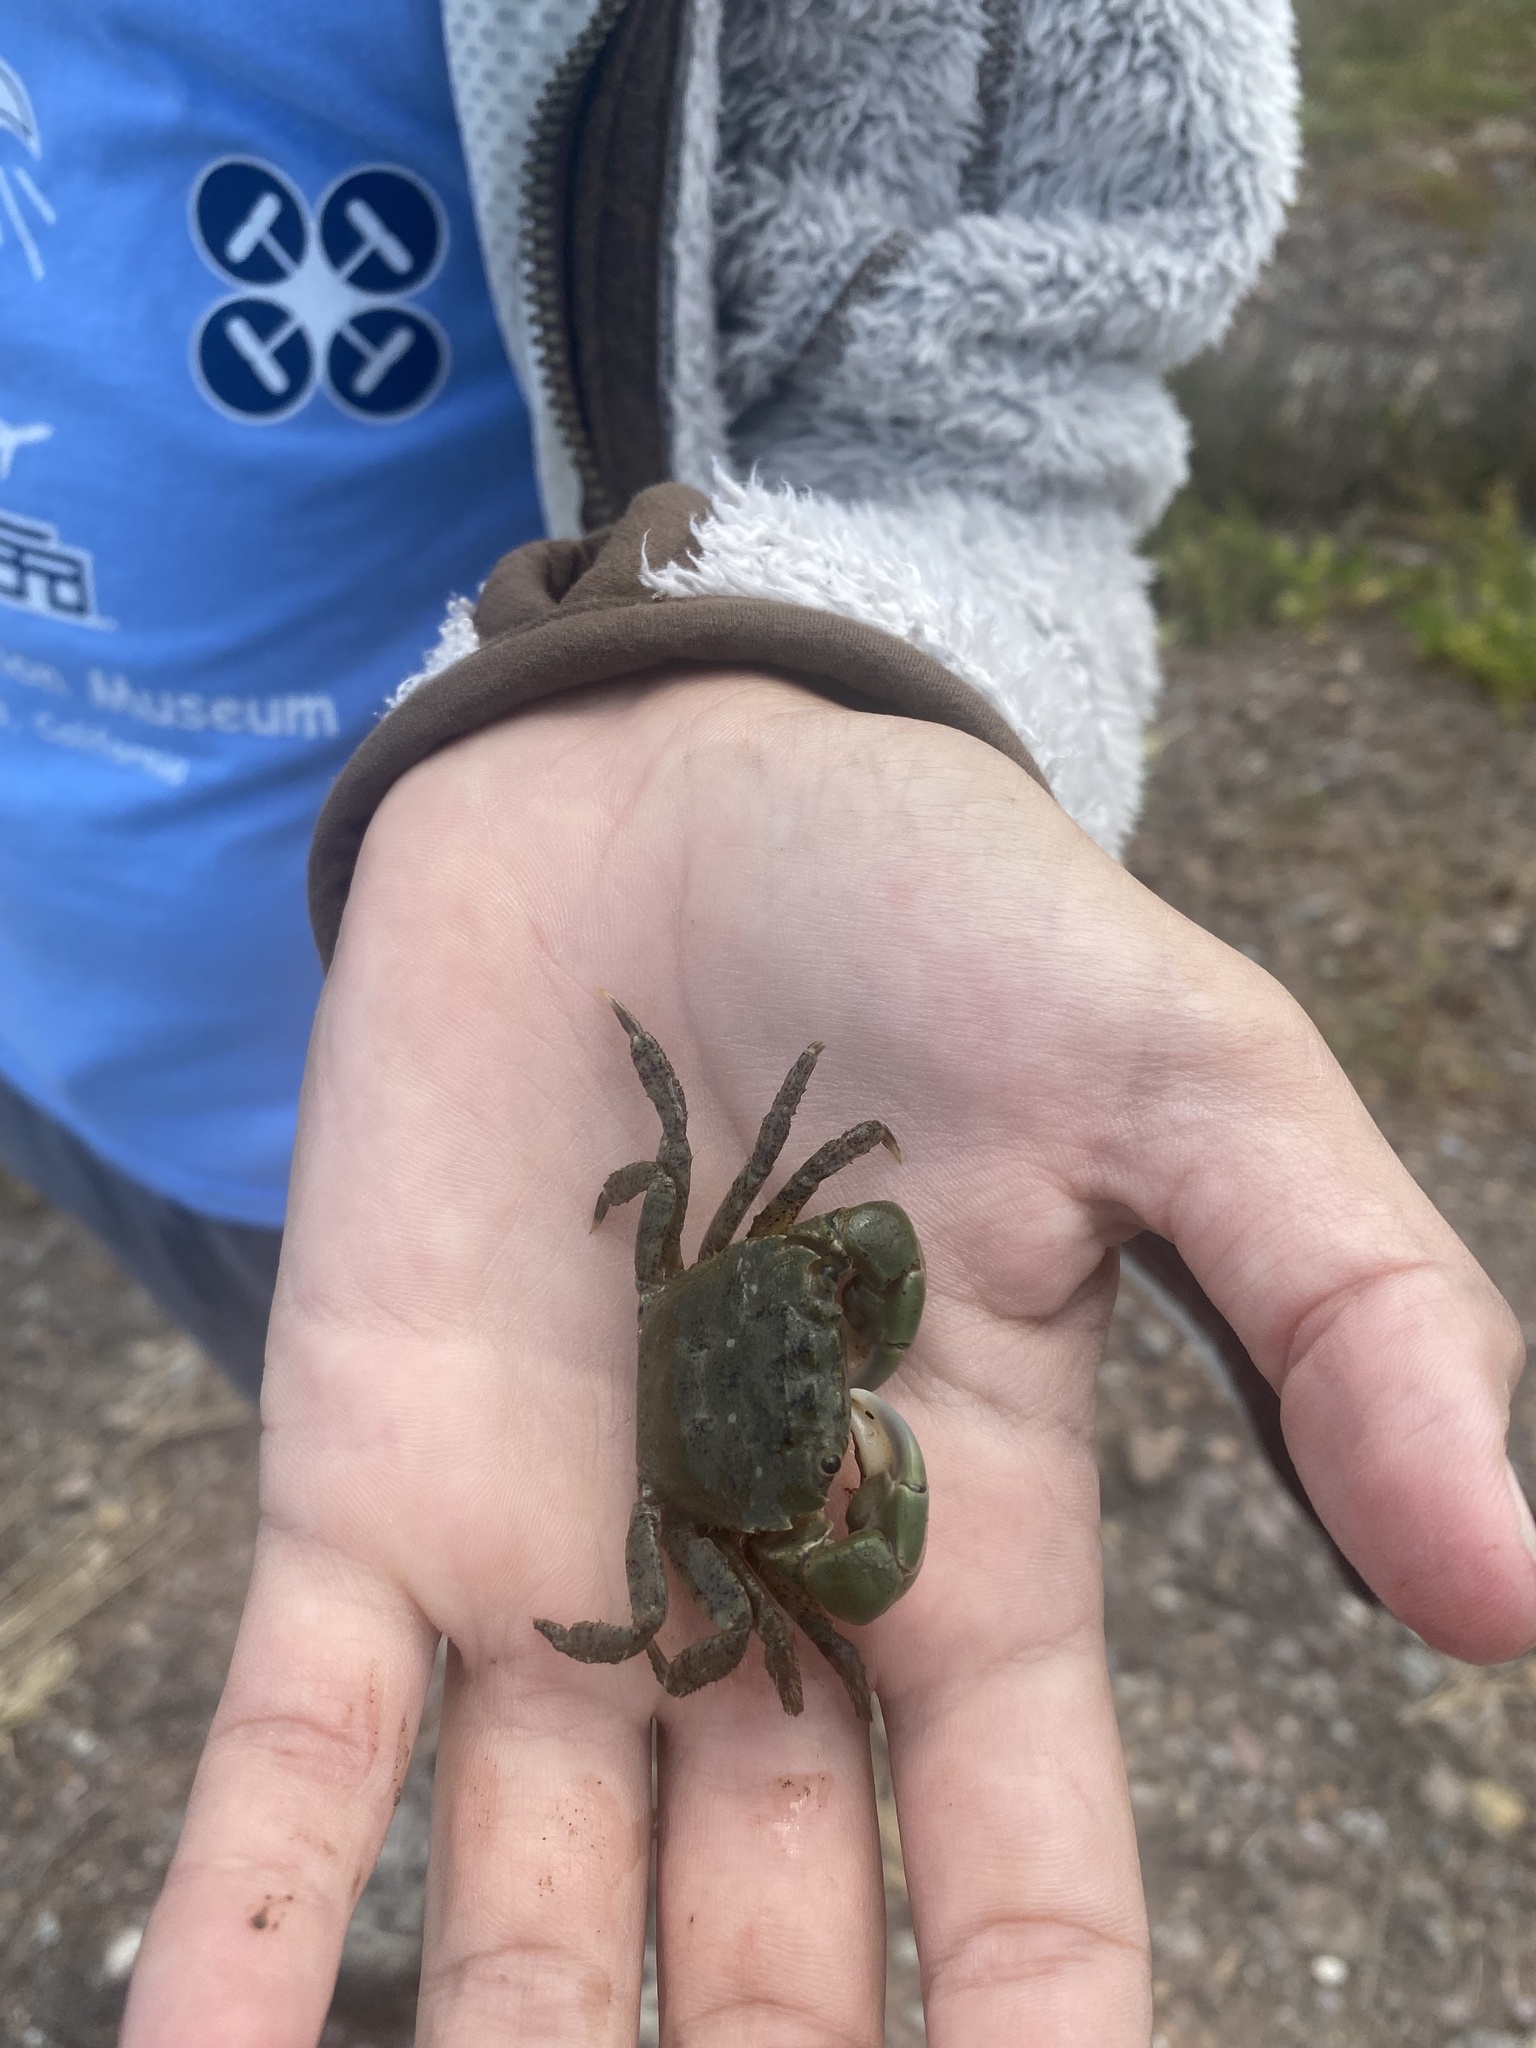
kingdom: Animalia
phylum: Arthropoda
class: Malacostraca
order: Decapoda
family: Varunidae
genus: Hemigrapsus
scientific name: Hemigrapsus oregonensis
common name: Yellow shore crab
